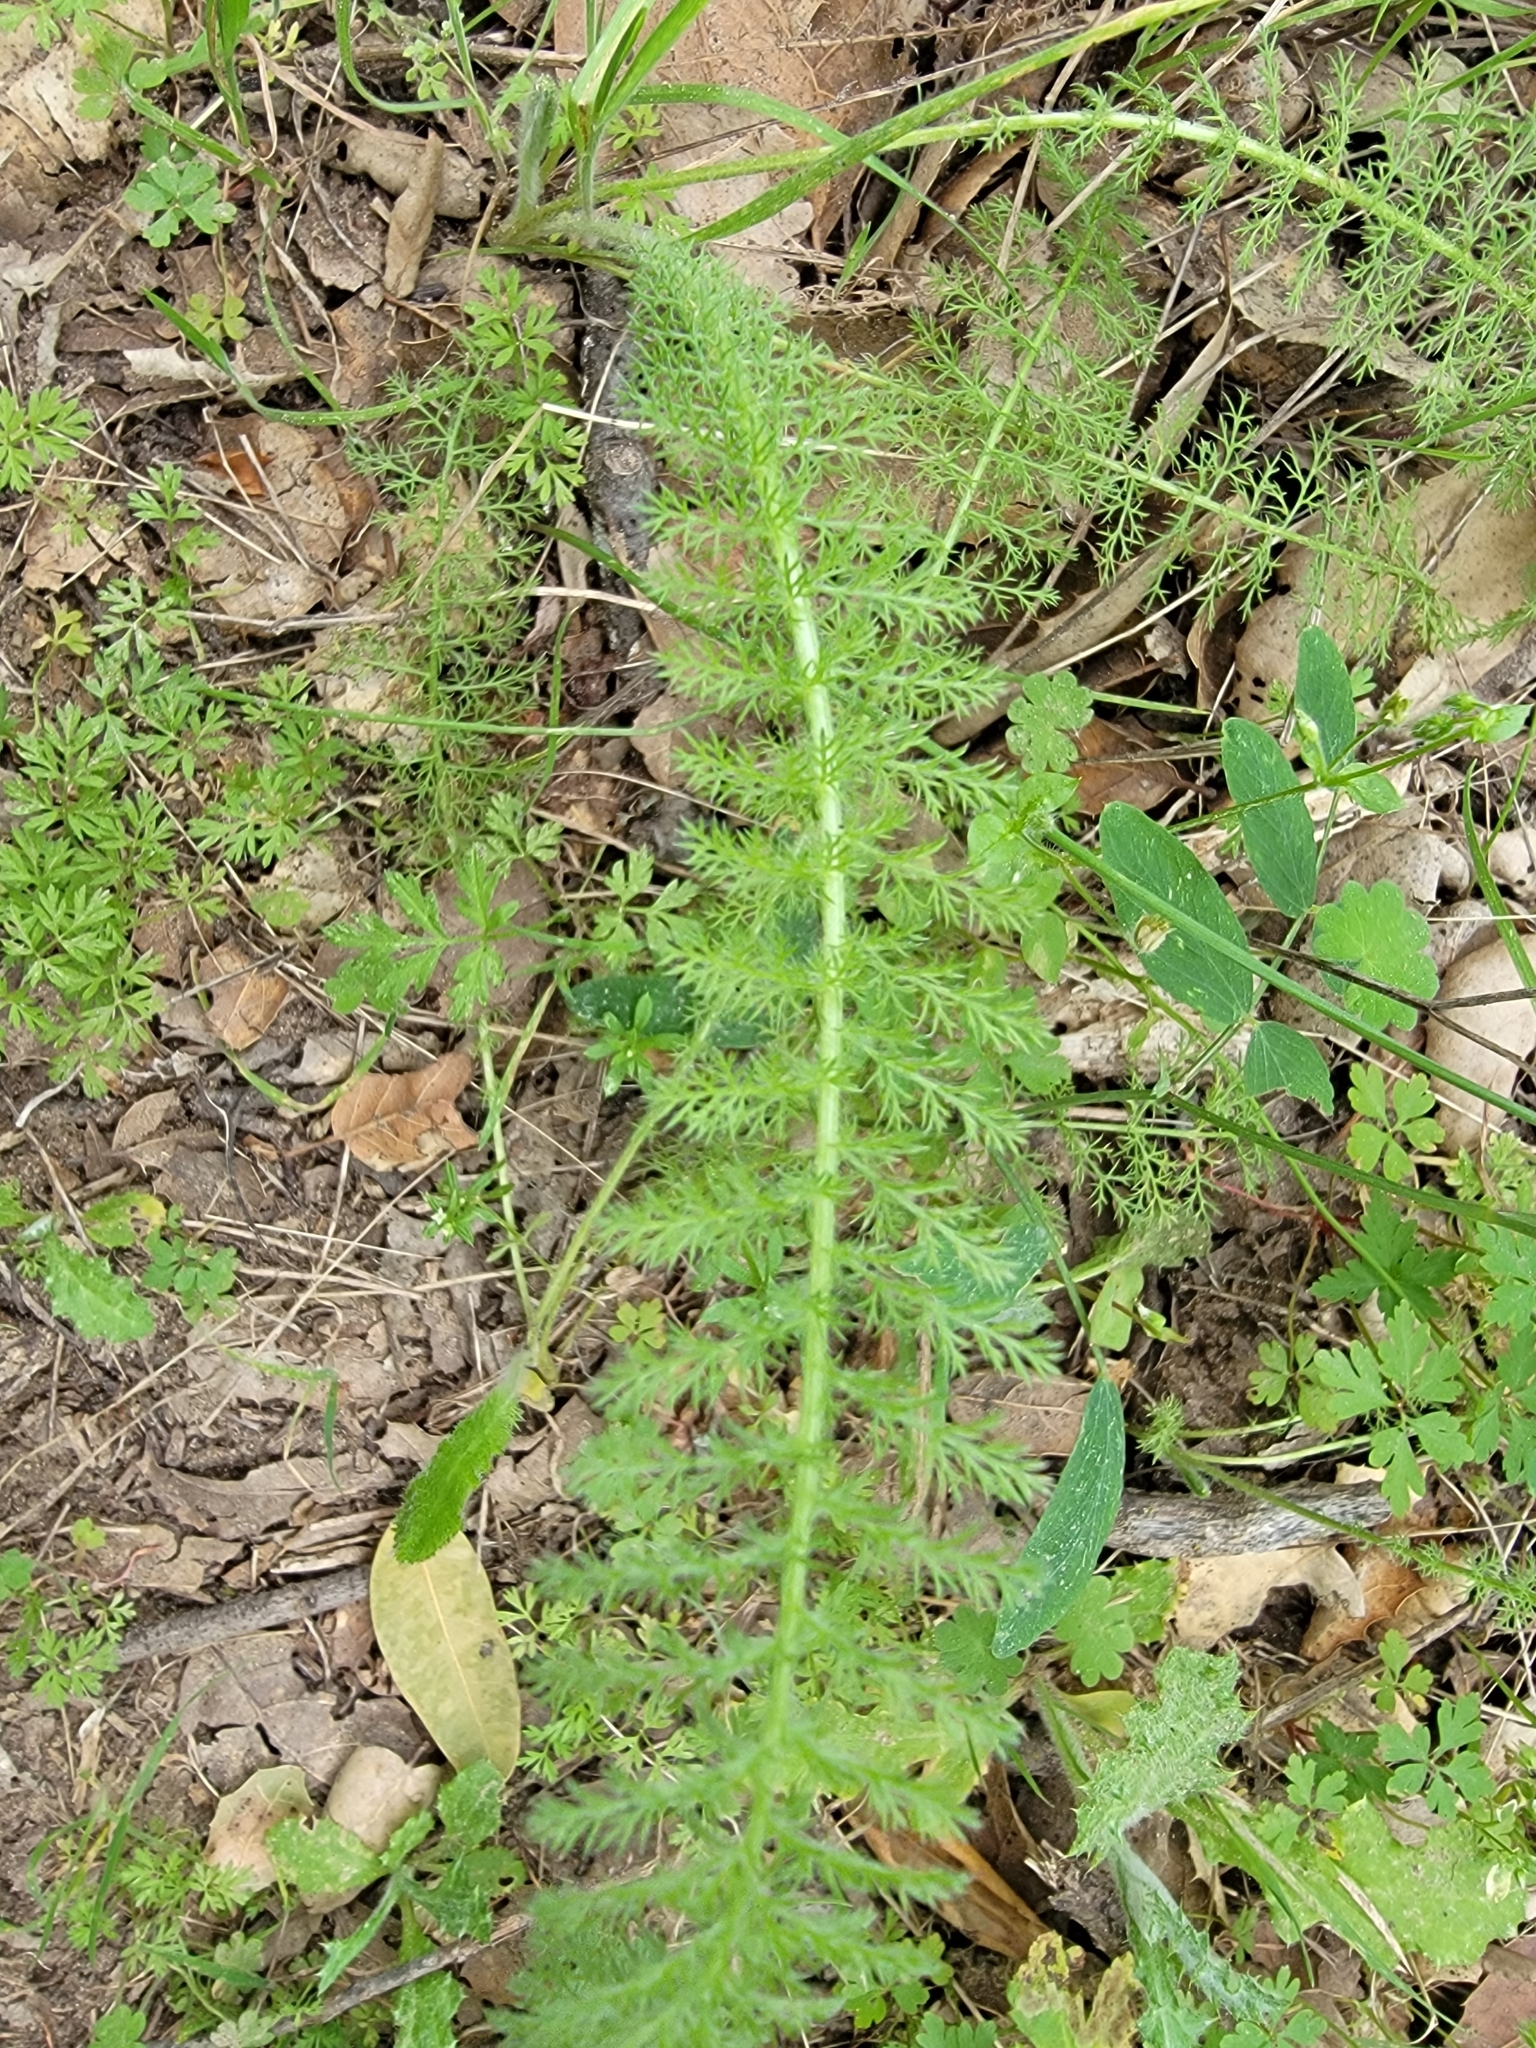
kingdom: Plantae
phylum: Tracheophyta
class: Magnoliopsida
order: Asterales
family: Asteraceae
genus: Achillea
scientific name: Achillea millefolium
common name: Yarrow
